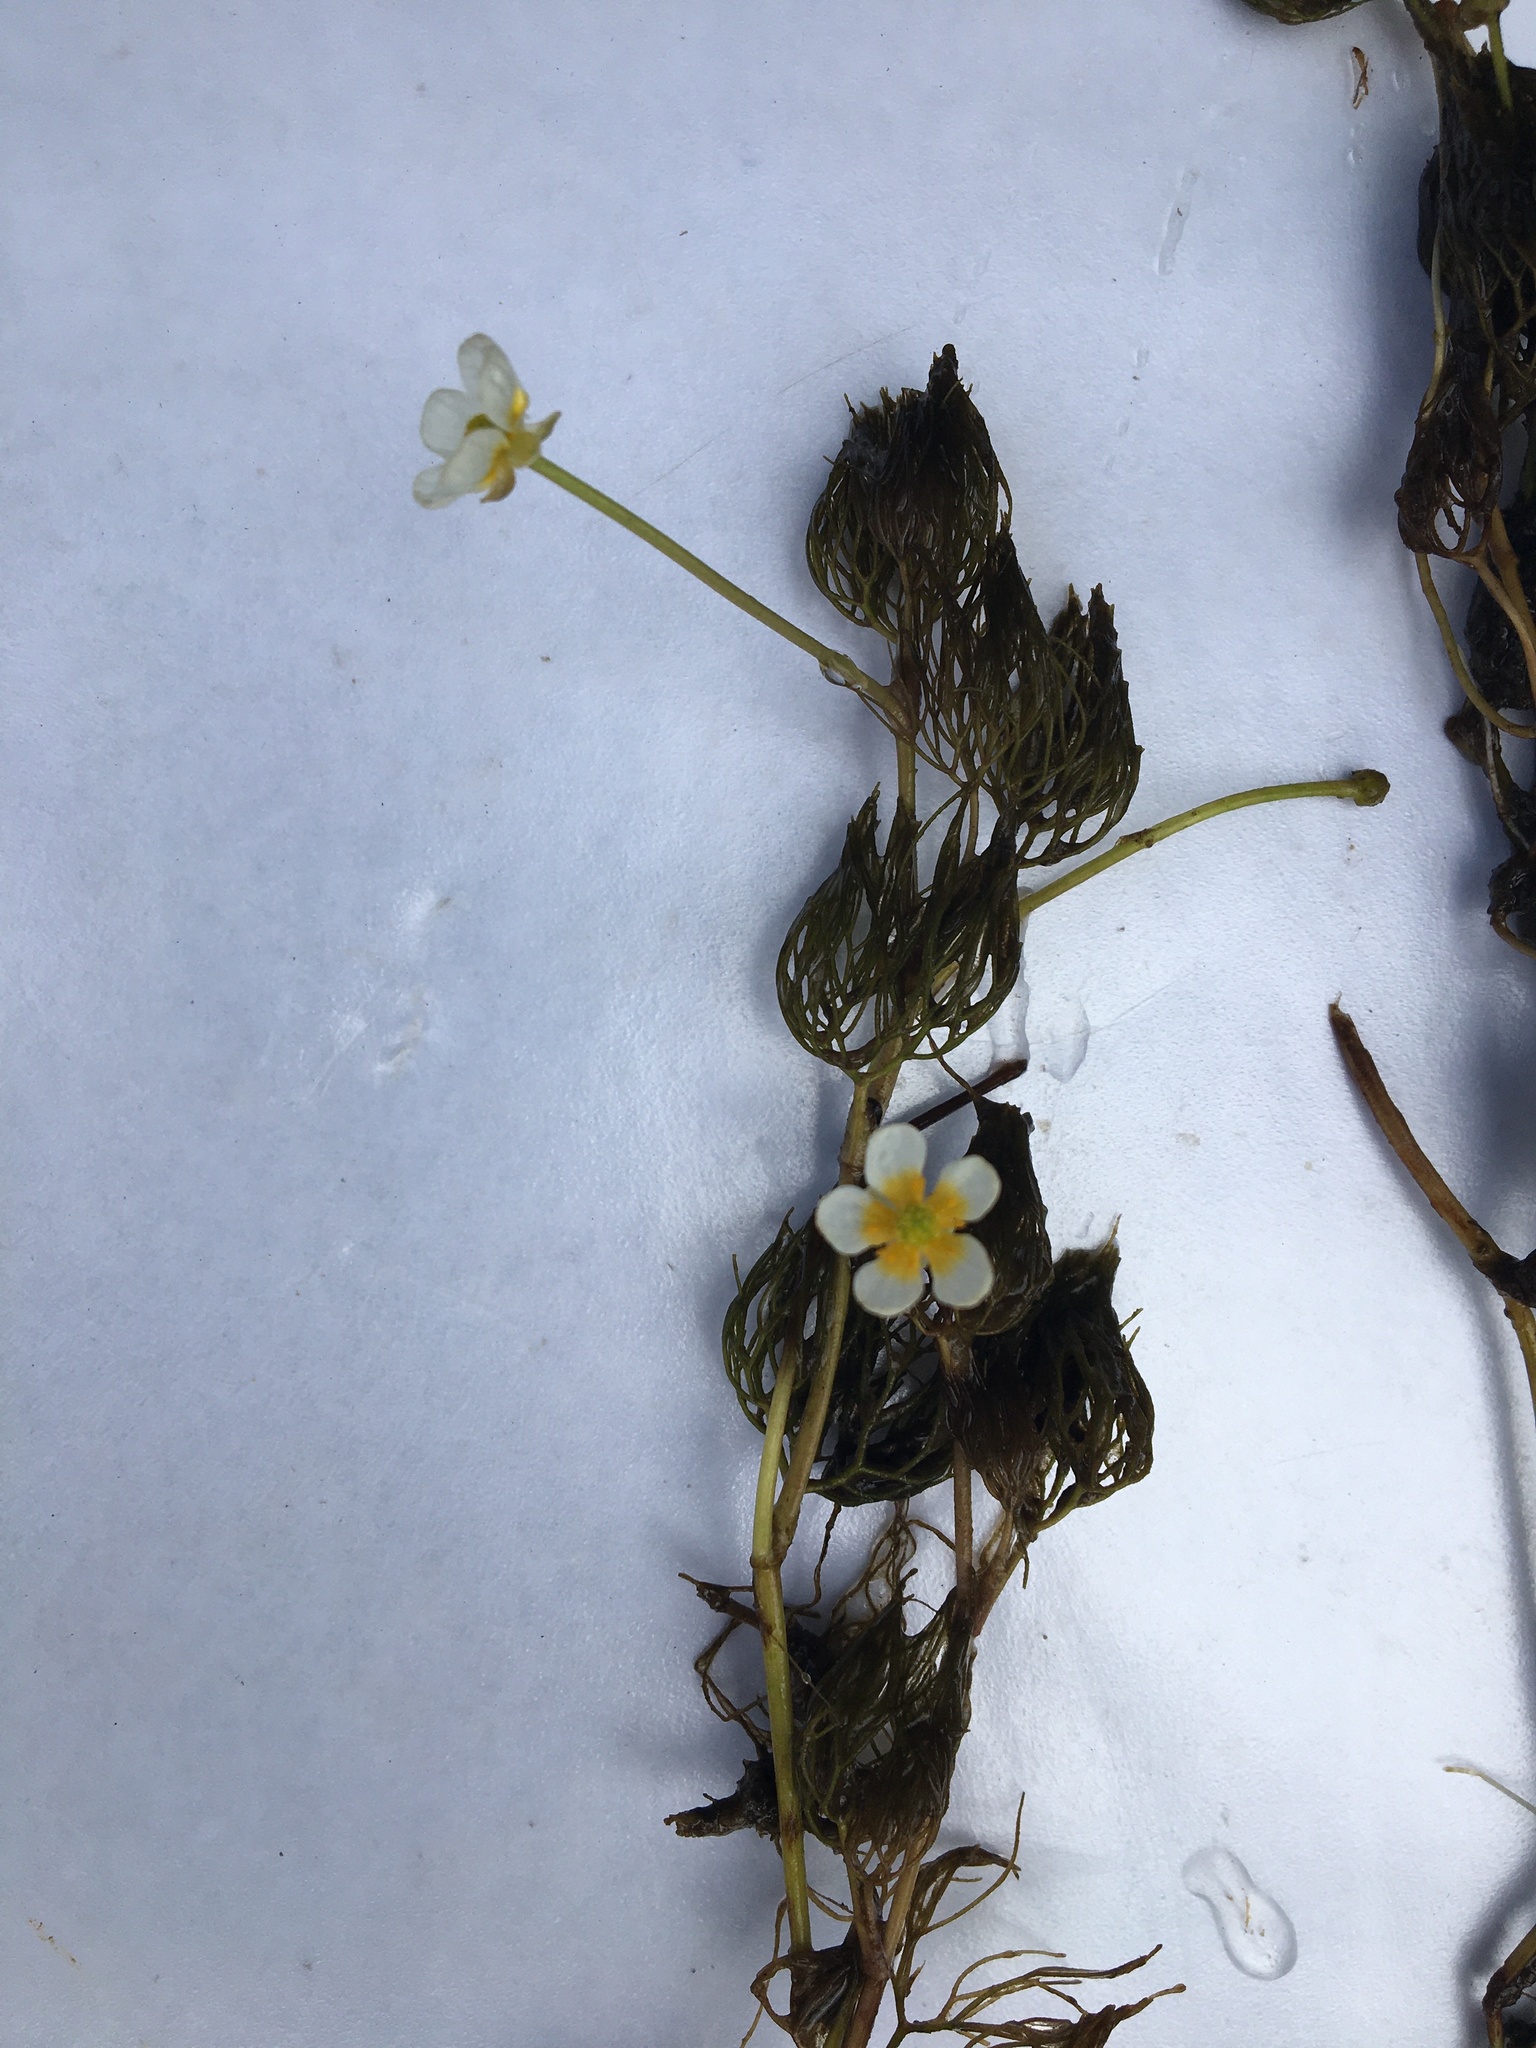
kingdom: Plantae
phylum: Tracheophyta
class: Magnoliopsida
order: Ranunculales
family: Ranunculaceae
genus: Ranunculus
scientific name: Ranunculus aquatilis
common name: Common water-crowfoot
